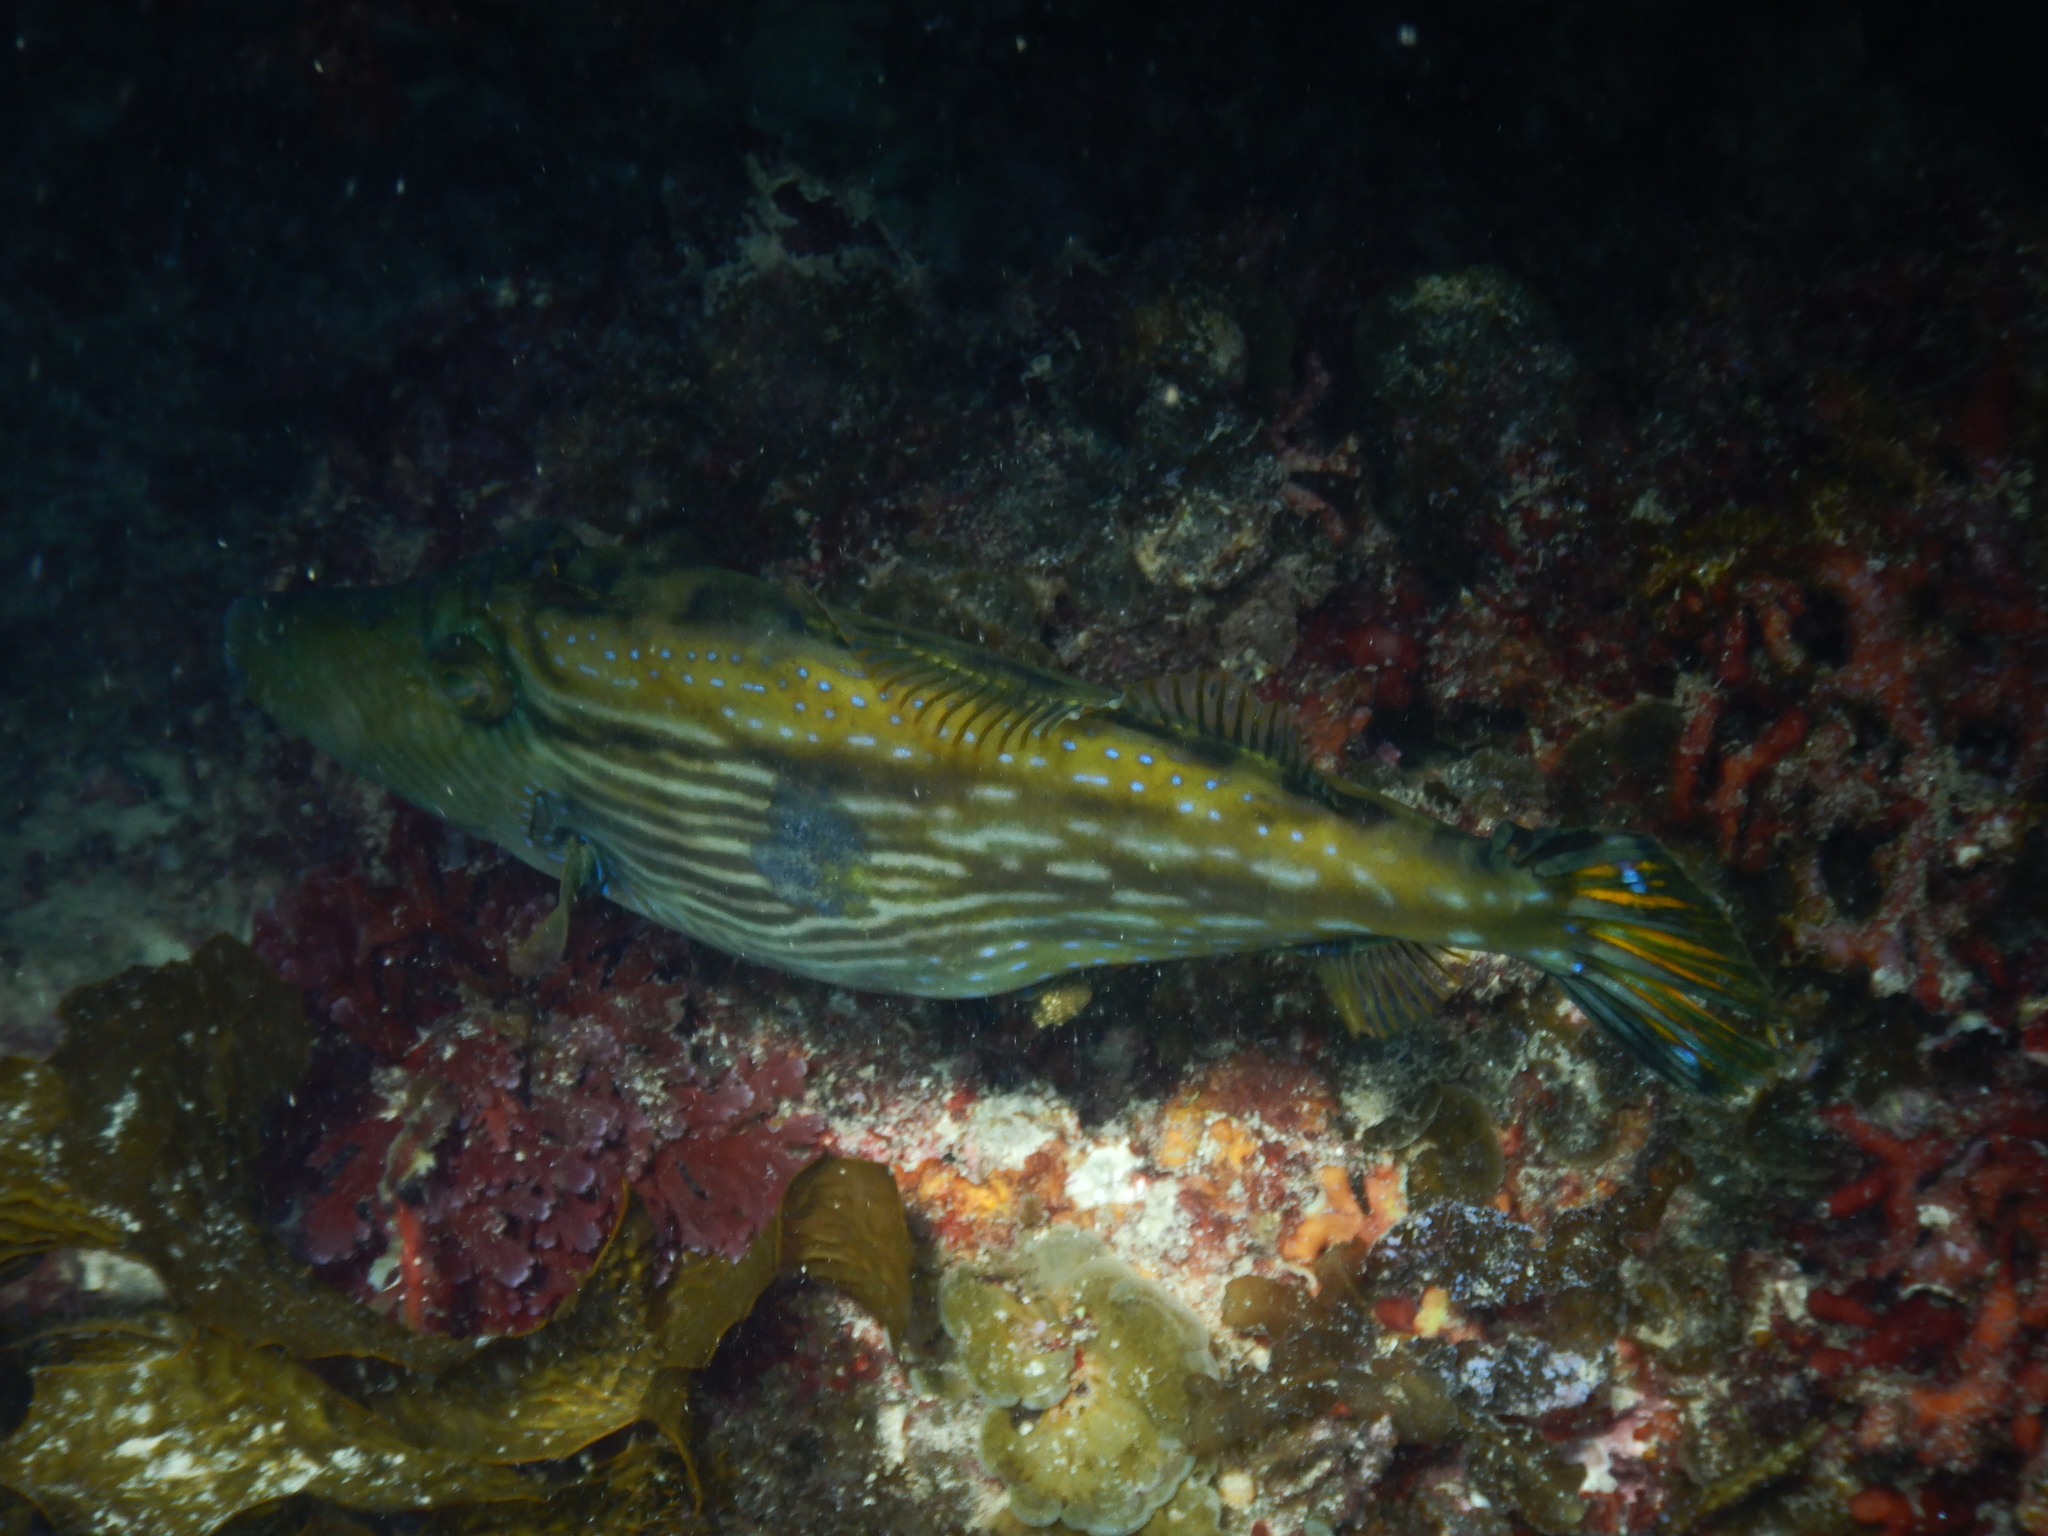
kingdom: Animalia
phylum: Chordata
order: Tetraodontiformes
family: Monacanthidae
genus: Meuschenia
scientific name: Meuschenia galii
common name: Bluelined leatherjacket
